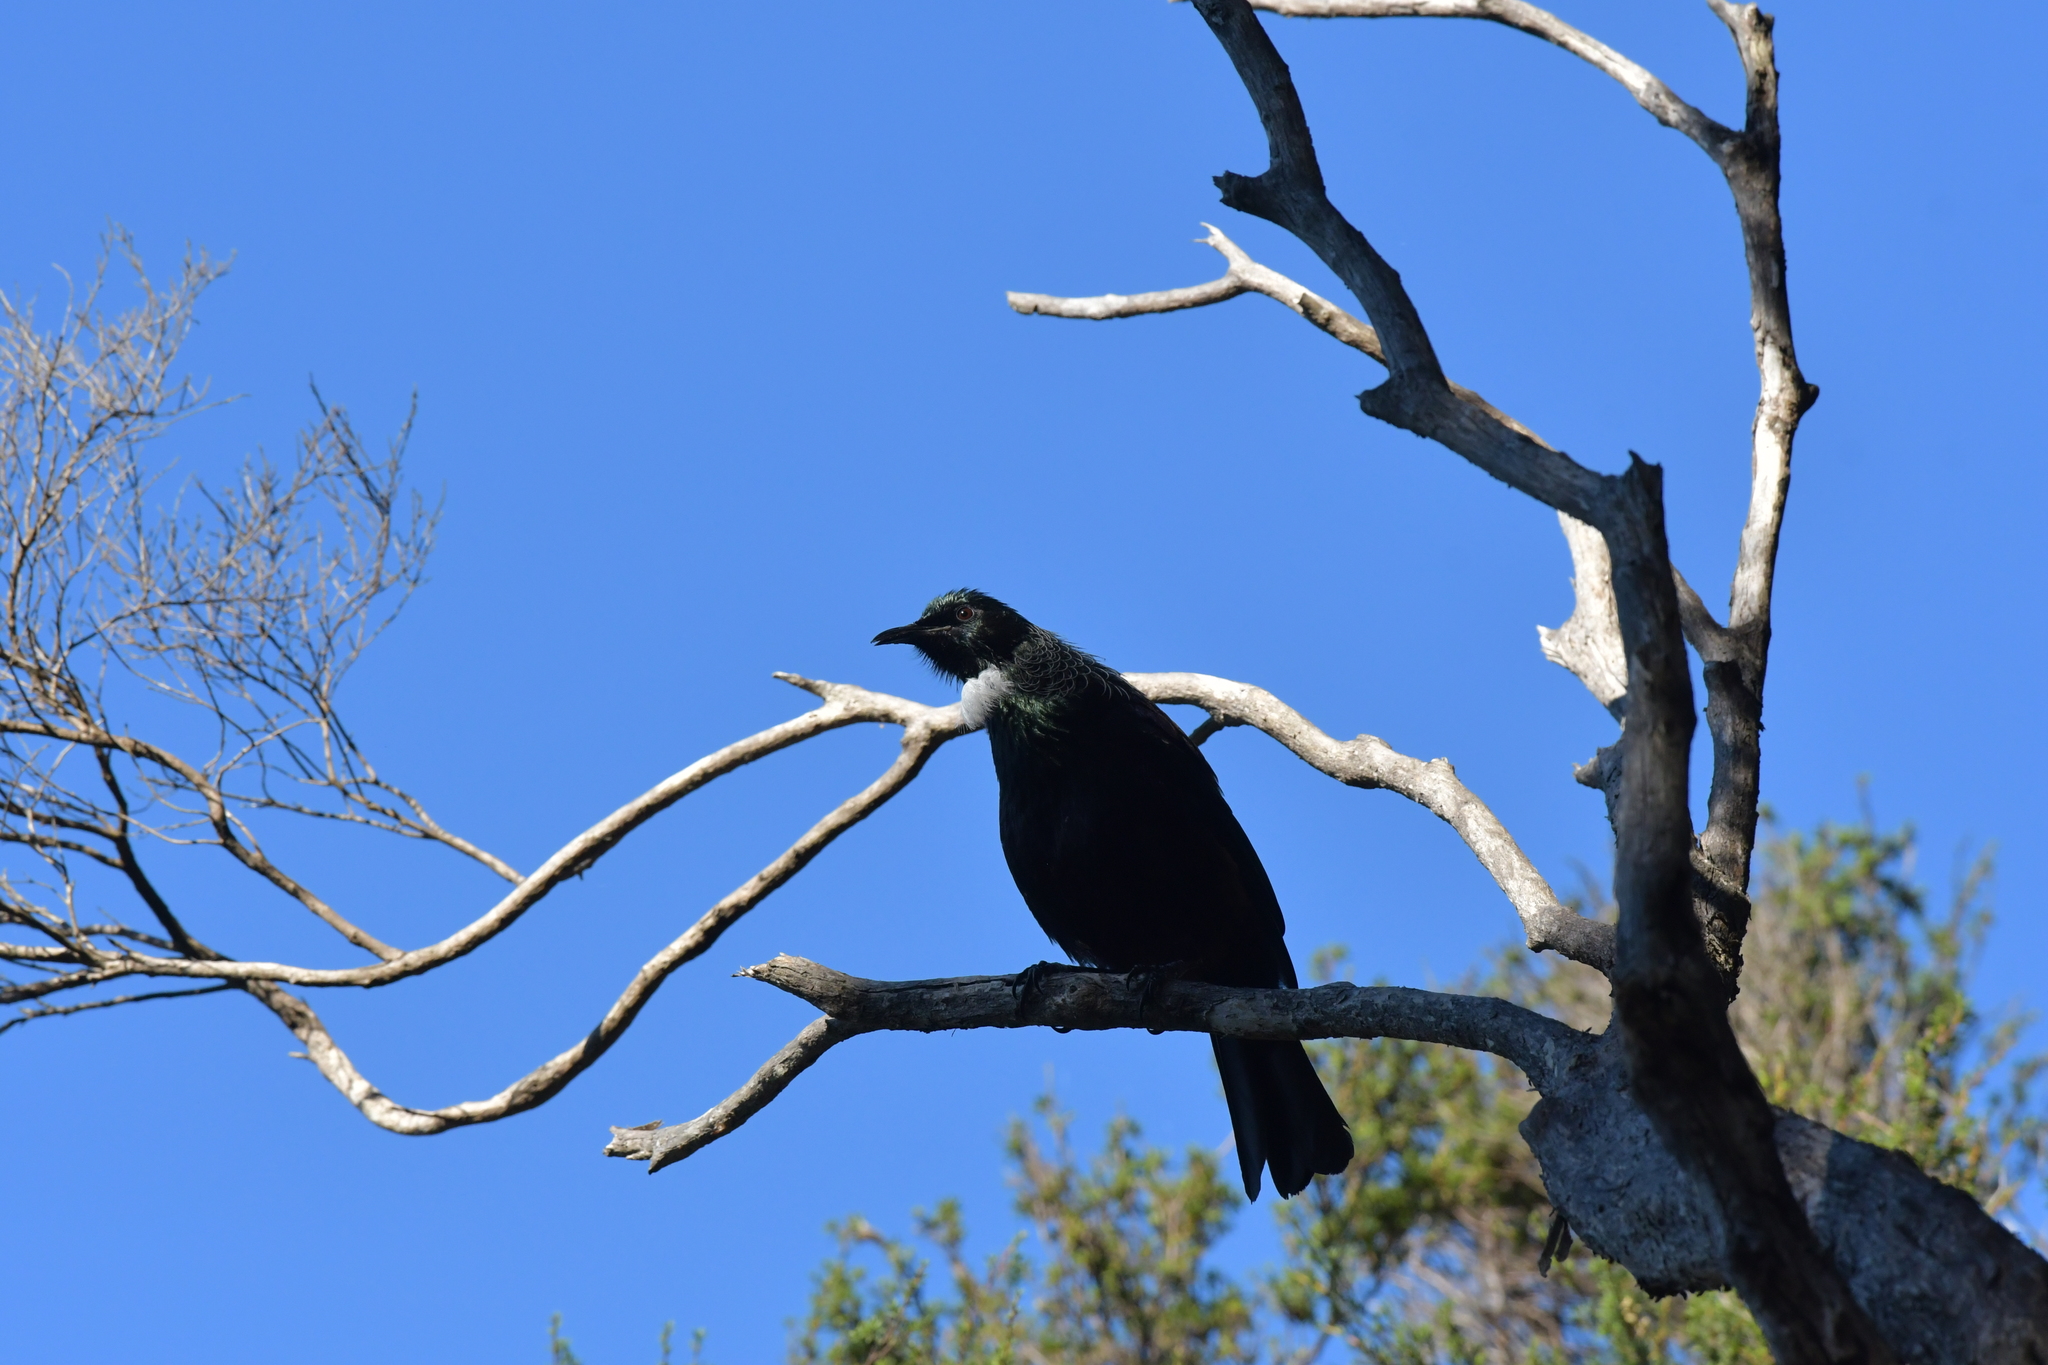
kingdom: Animalia
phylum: Chordata
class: Aves
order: Passeriformes
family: Meliphagidae
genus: Prosthemadera
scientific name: Prosthemadera novaeseelandiae
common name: Tui
